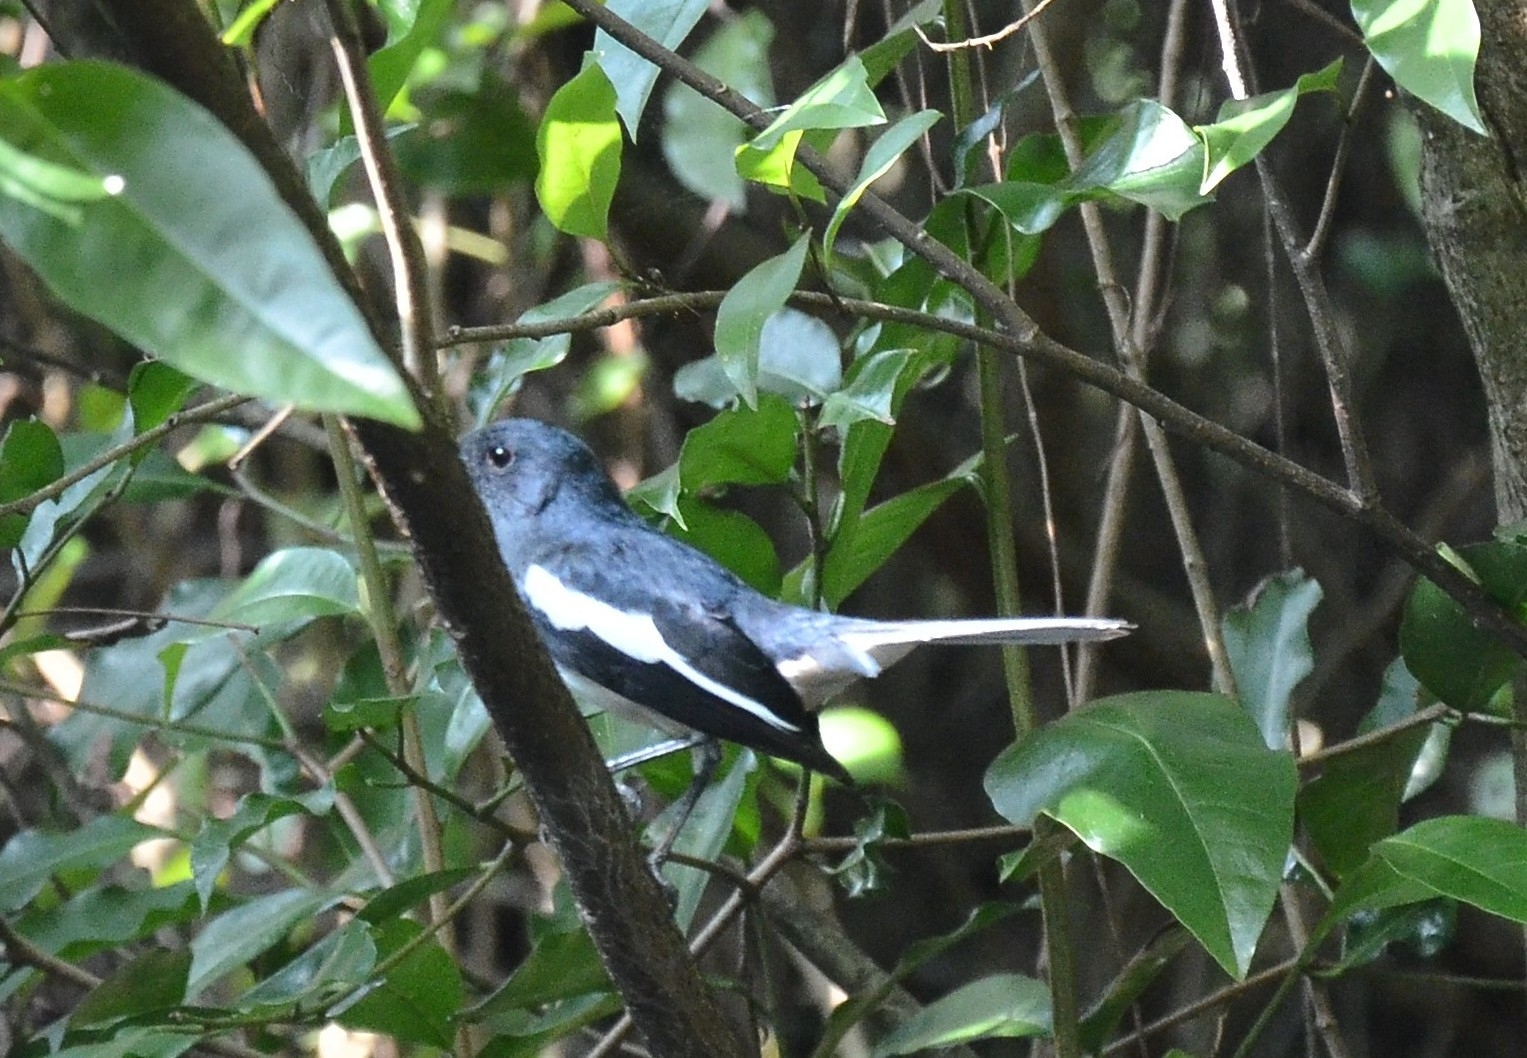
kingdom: Animalia
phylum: Chordata
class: Aves
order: Passeriformes
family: Muscicapidae
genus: Copsychus
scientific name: Copsychus saularis
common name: Oriental magpie-robin
